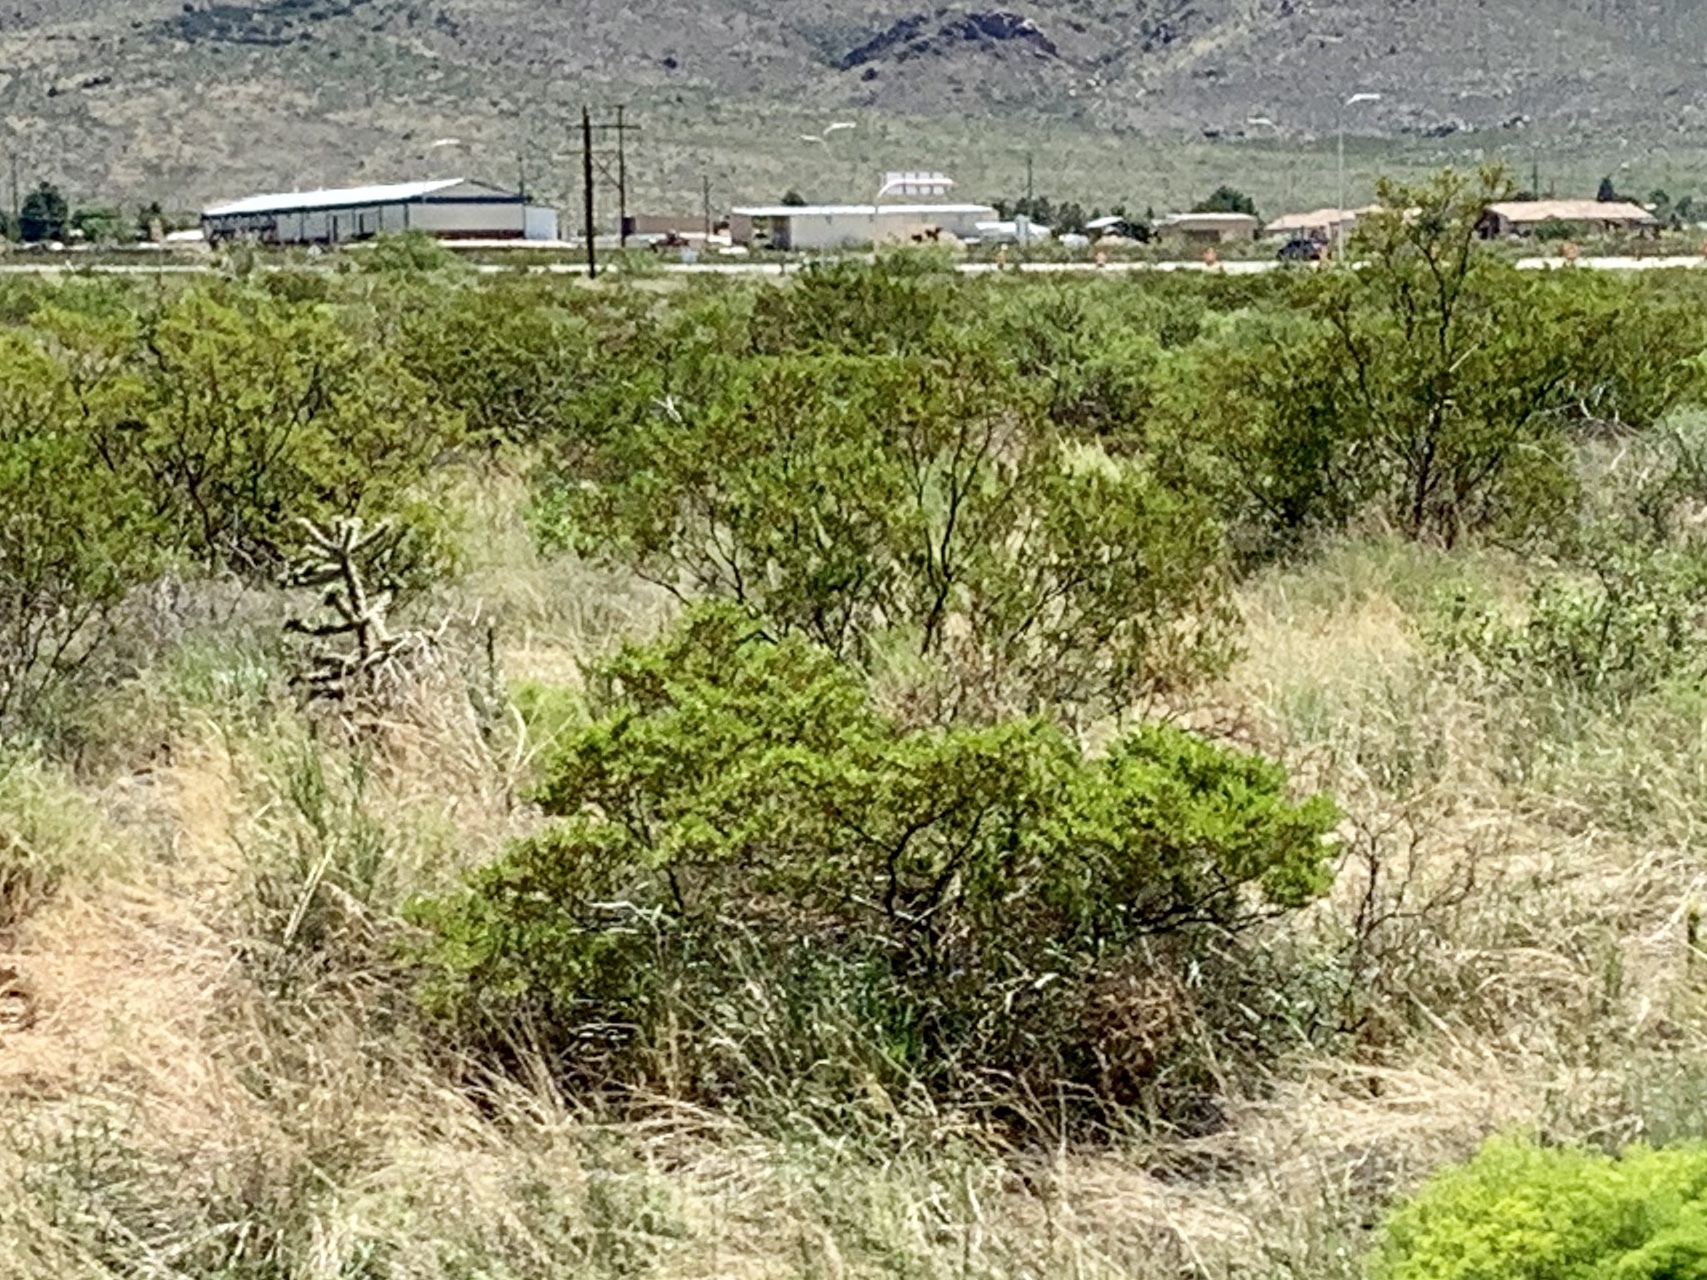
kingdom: Plantae
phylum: Tracheophyta
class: Magnoliopsida
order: Zygophyllales
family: Zygophyllaceae
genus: Larrea
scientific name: Larrea tridentata
